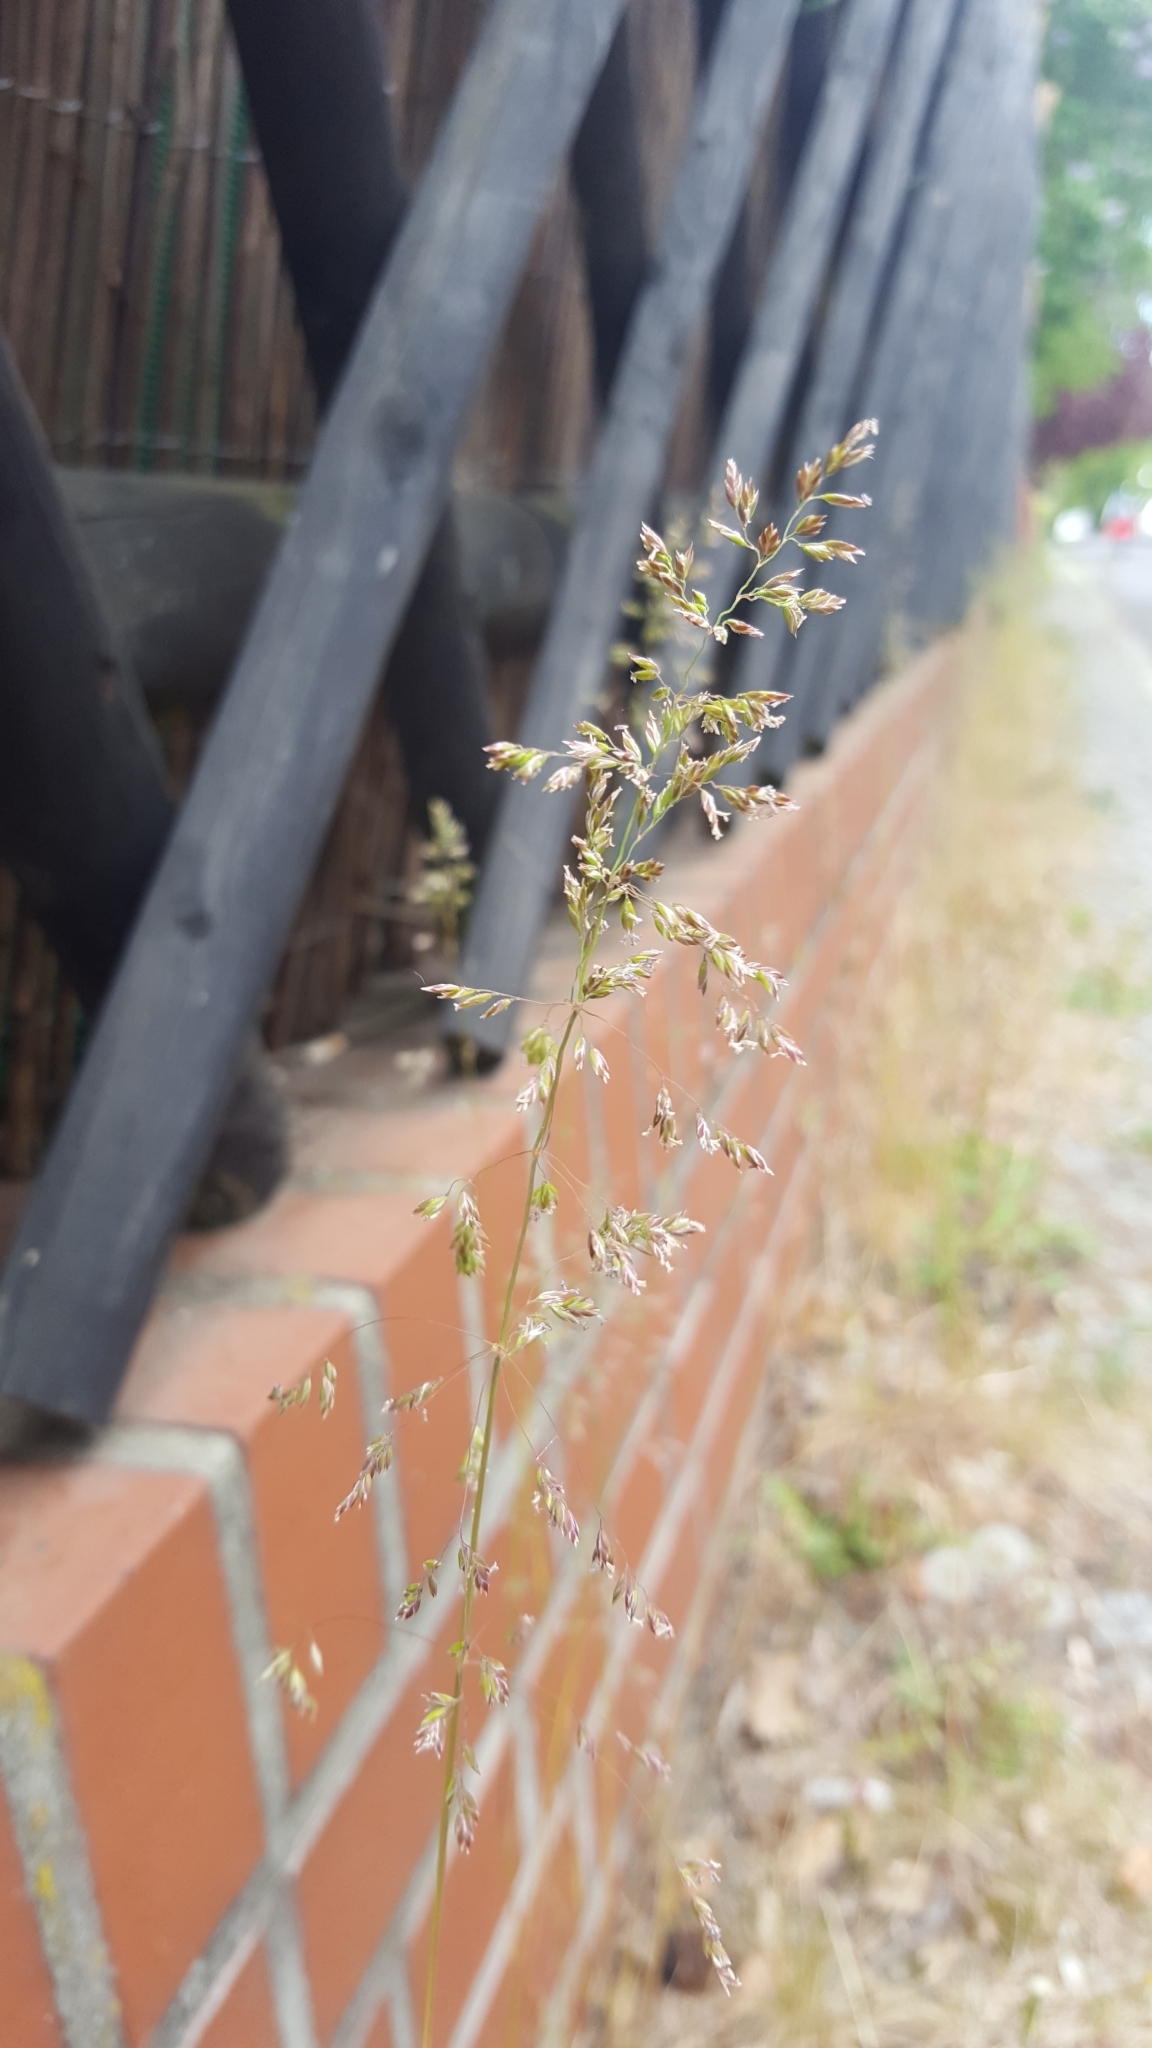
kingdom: Plantae
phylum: Tracheophyta
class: Liliopsida
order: Poales
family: Poaceae
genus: Poa
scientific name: Poa pratensis
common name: Kentucky bluegrass
